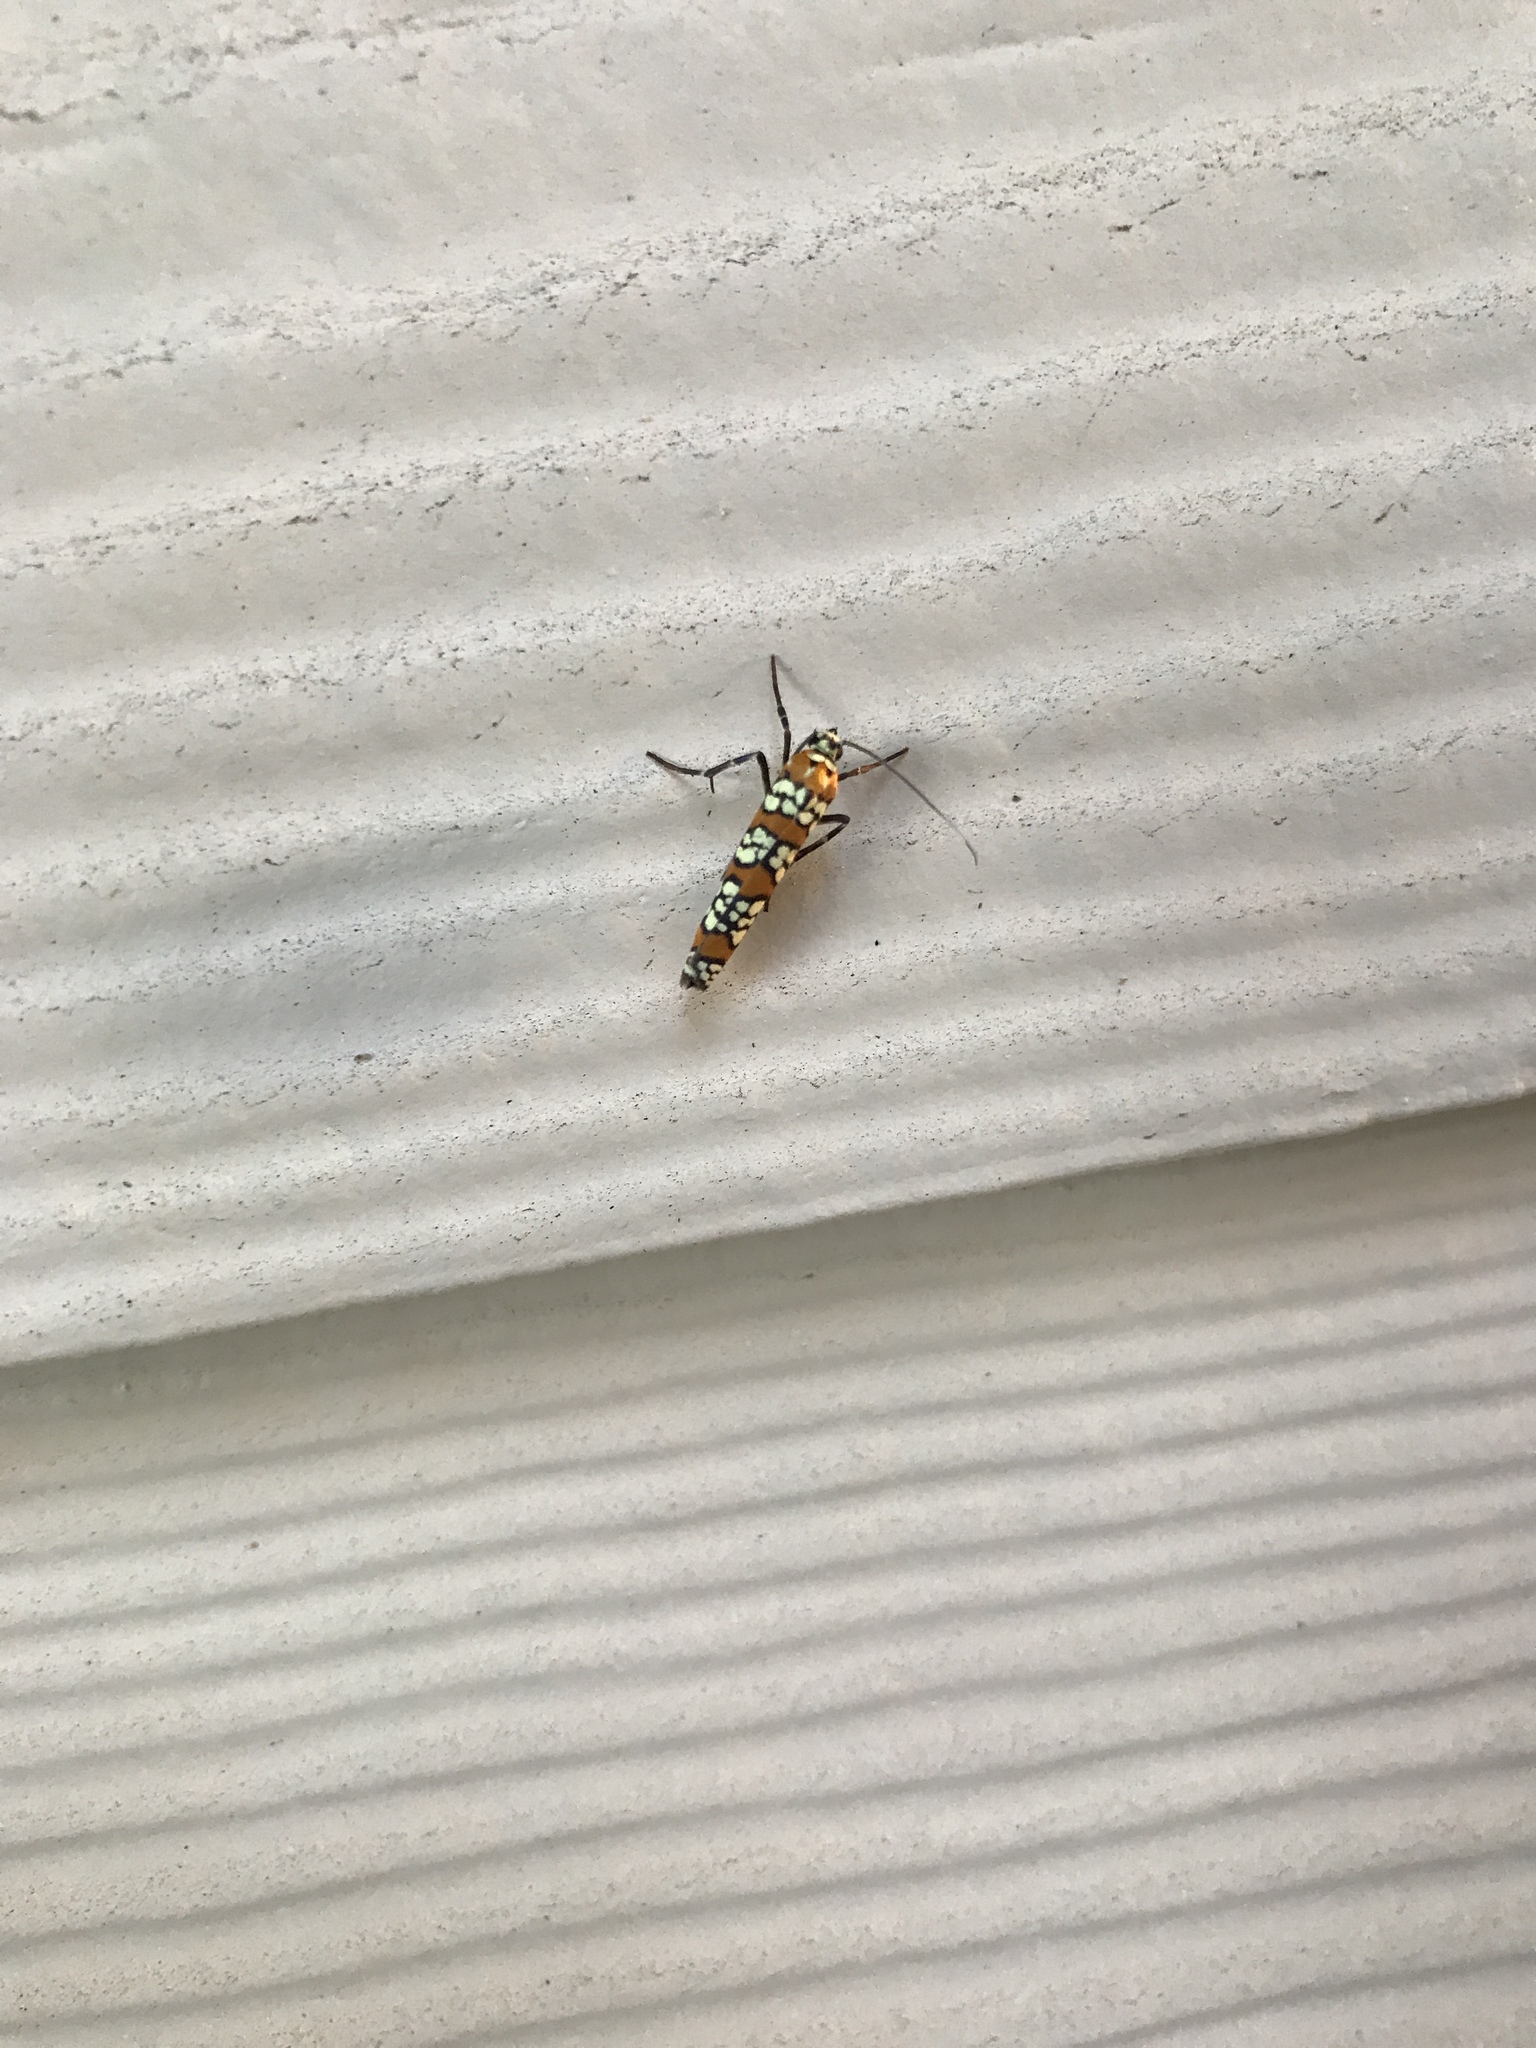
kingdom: Animalia
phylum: Arthropoda
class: Insecta
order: Lepidoptera
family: Attevidae
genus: Atteva
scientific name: Atteva punctella
